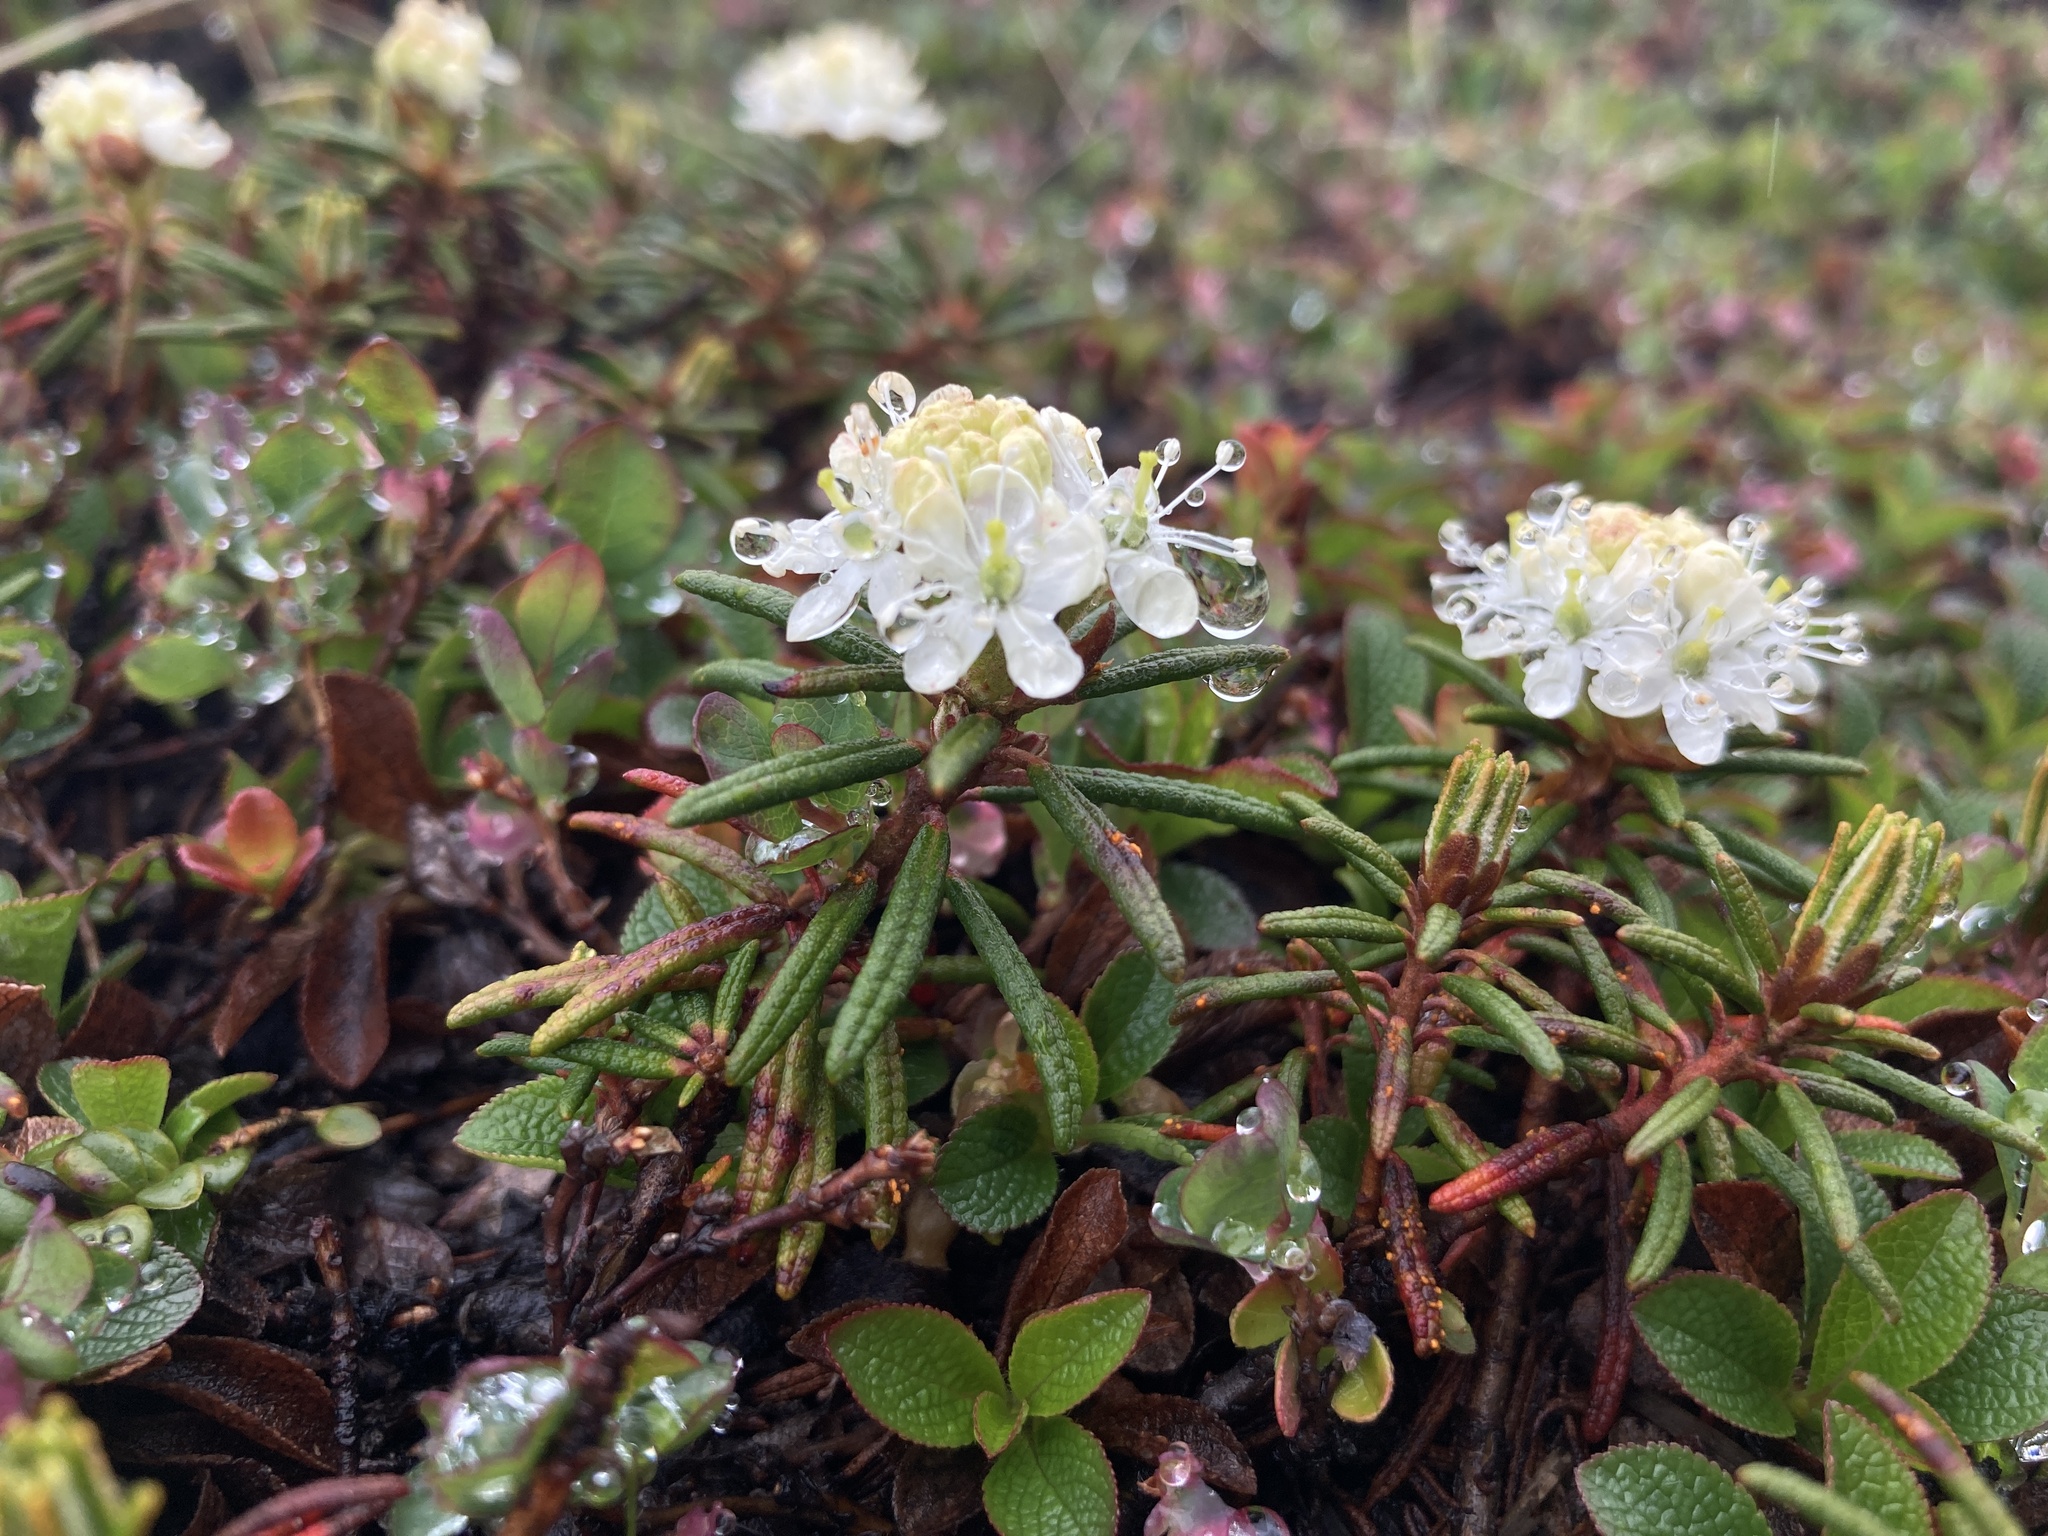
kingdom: Plantae
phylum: Tracheophyta
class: Magnoliopsida
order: Ericales
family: Ericaceae
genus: Rhododendron
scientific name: Rhododendron tomentosum
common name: Marsh labrador tea
